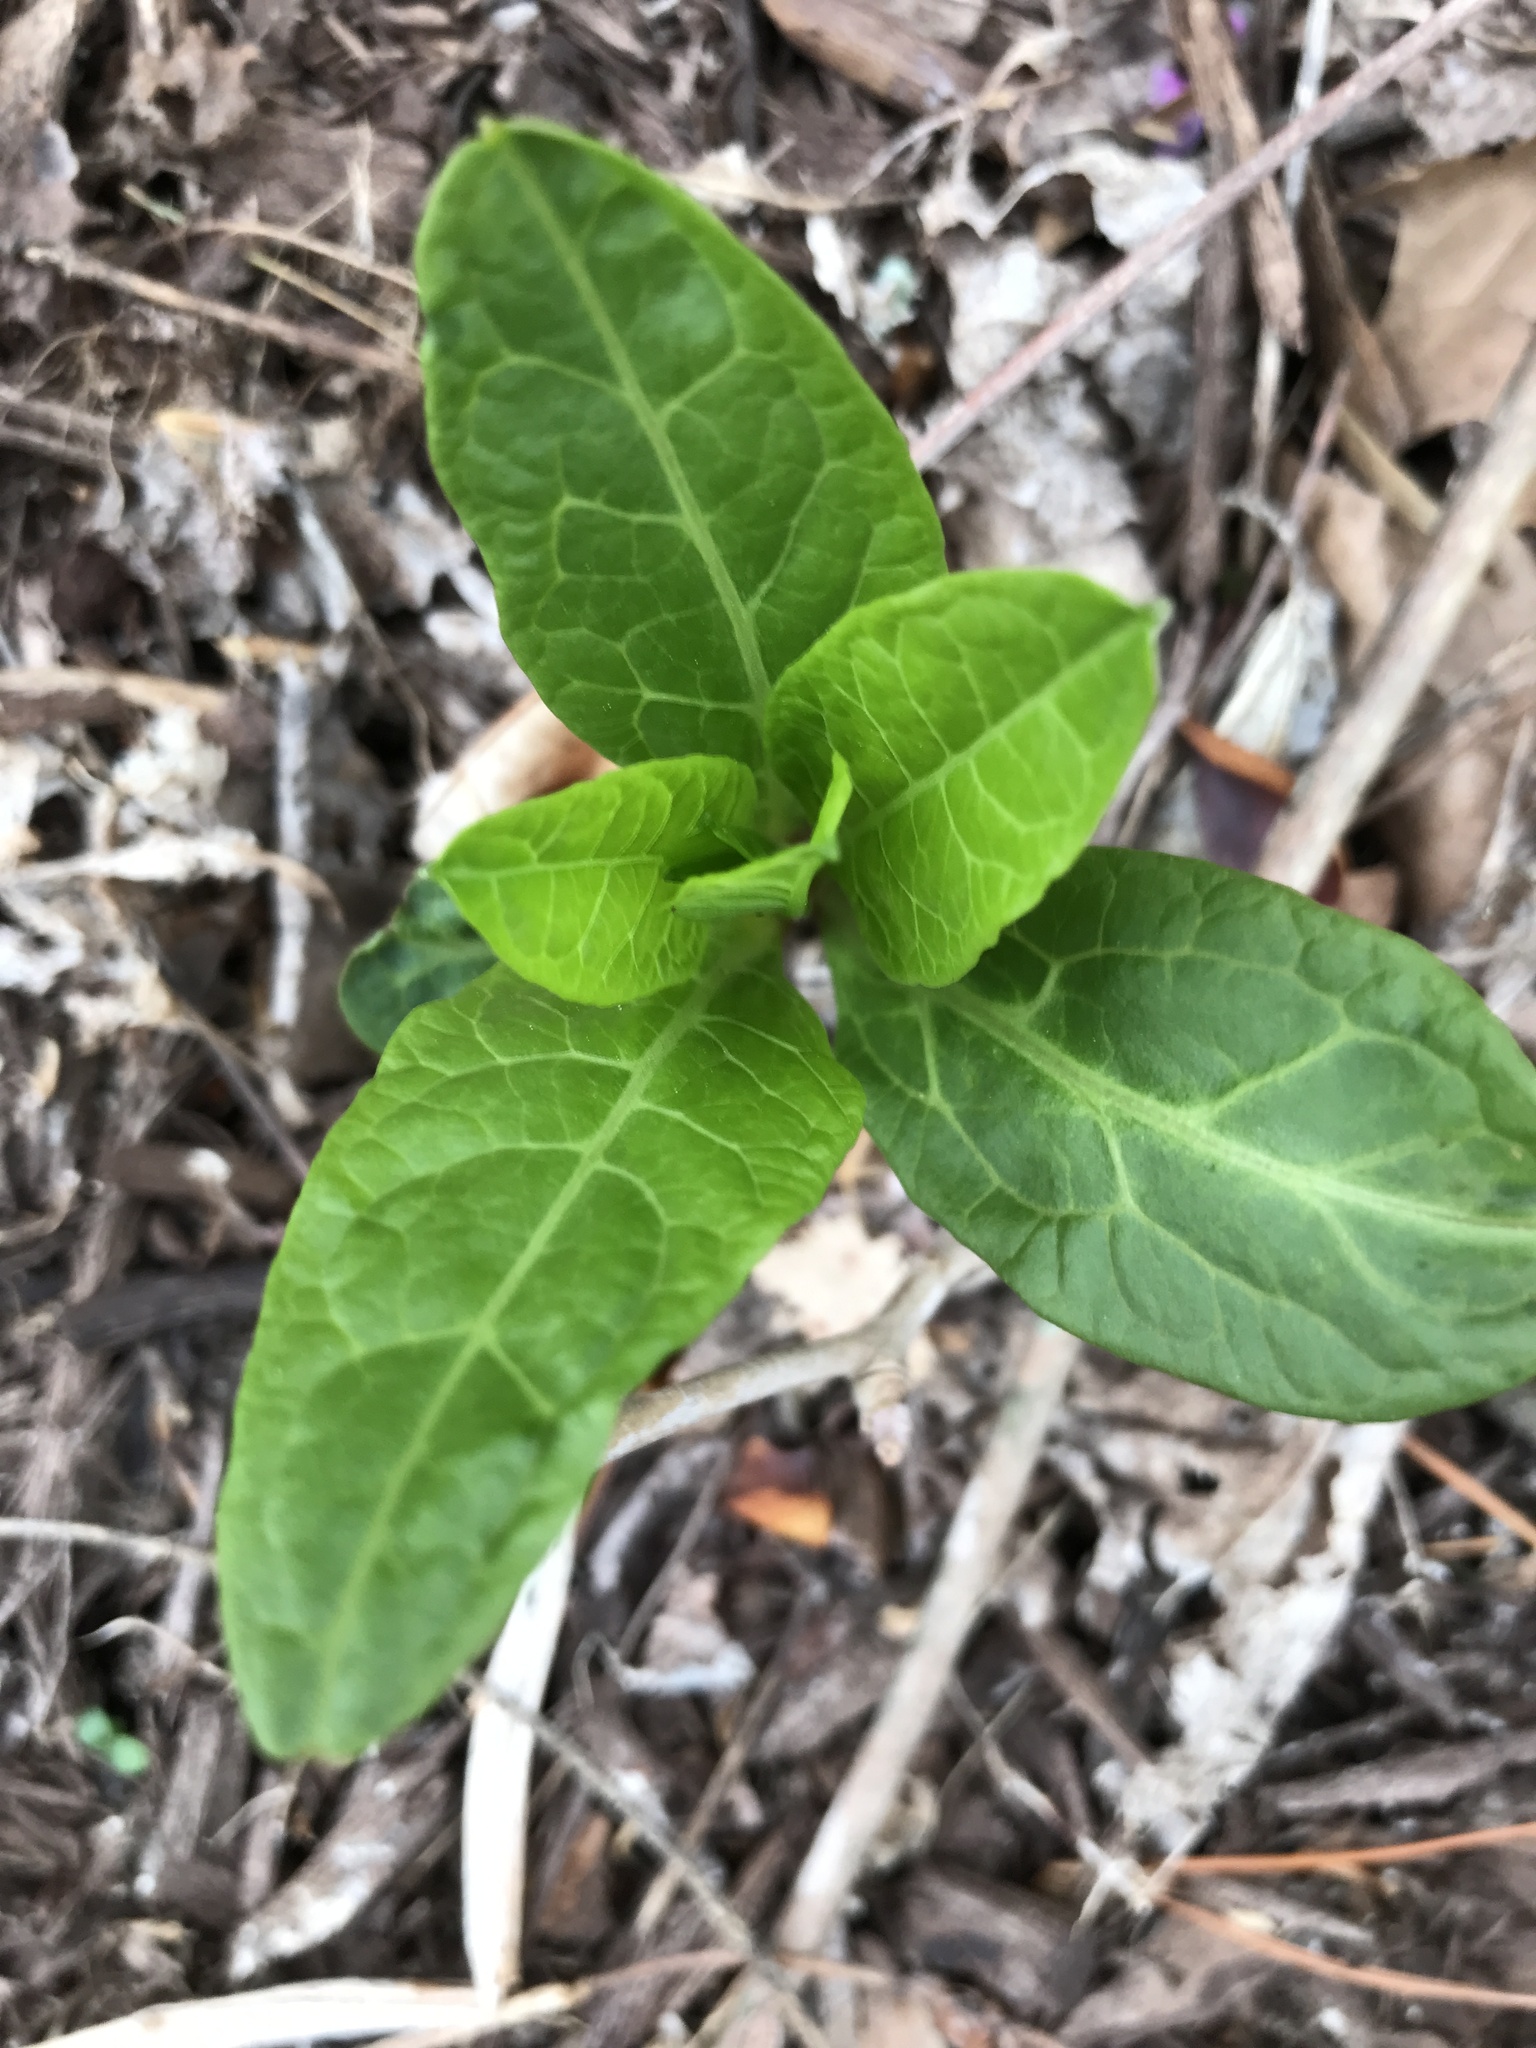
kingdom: Plantae
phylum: Tracheophyta
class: Magnoliopsida
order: Caryophyllales
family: Phytolaccaceae
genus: Phytolacca
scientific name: Phytolacca americana
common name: American pokeweed
